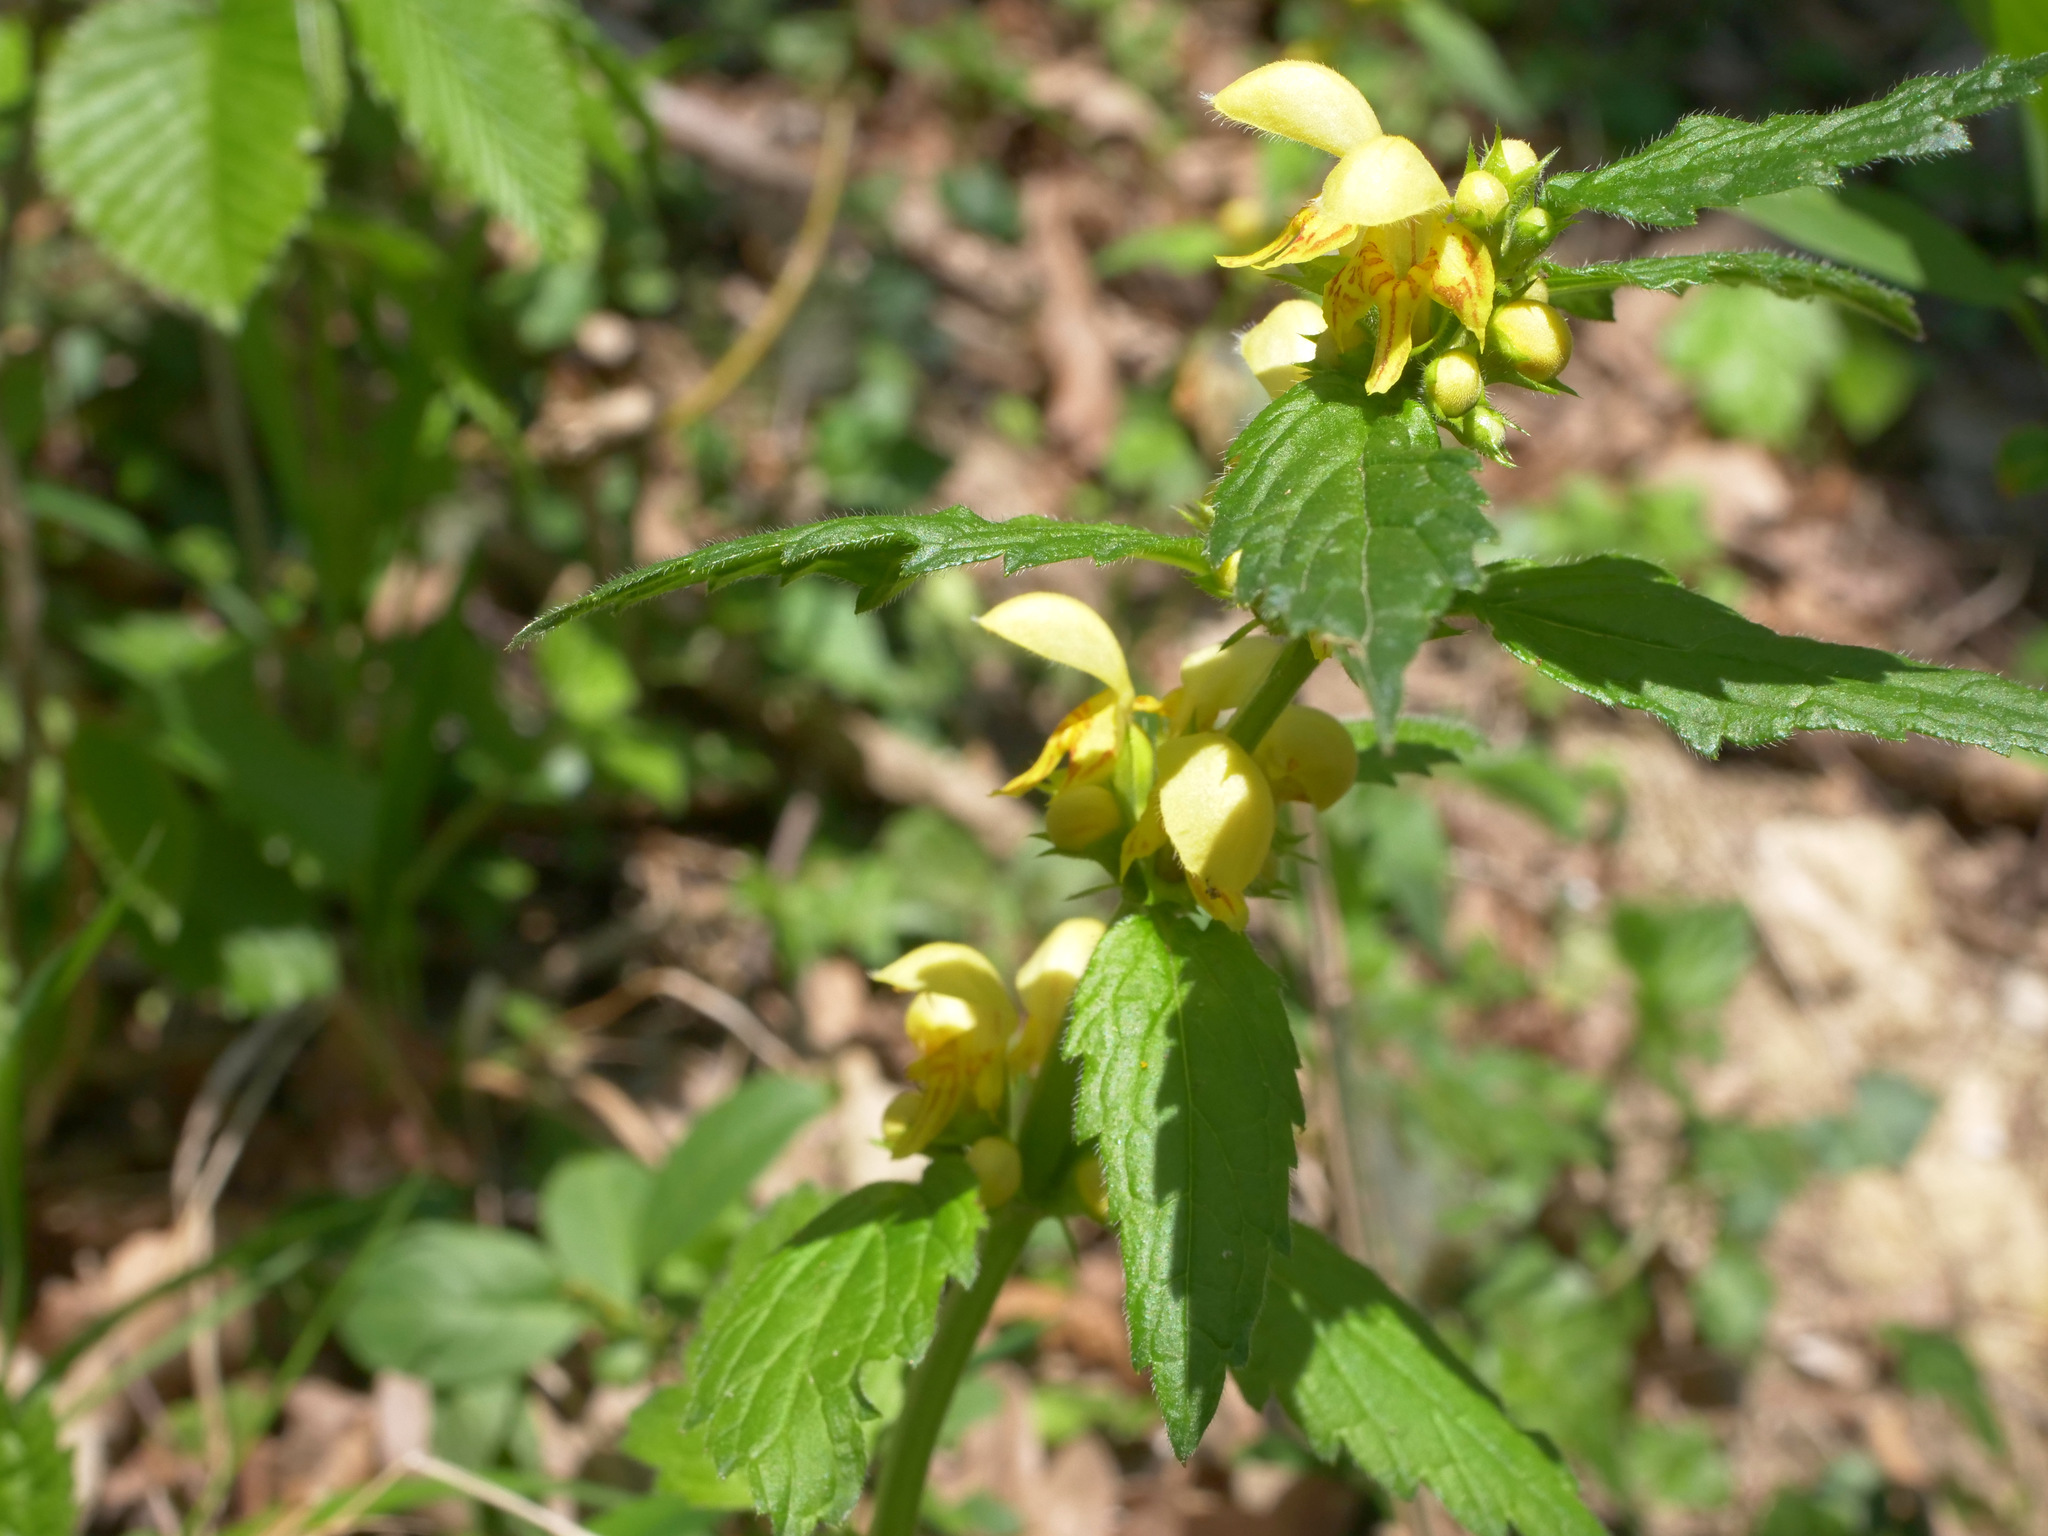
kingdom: Plantae
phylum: Tracheophyta
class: Magnoliopsida
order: Lamiales
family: Lamiaceae
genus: Lamium
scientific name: Lamium galeobdolon
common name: Yellow archangel
